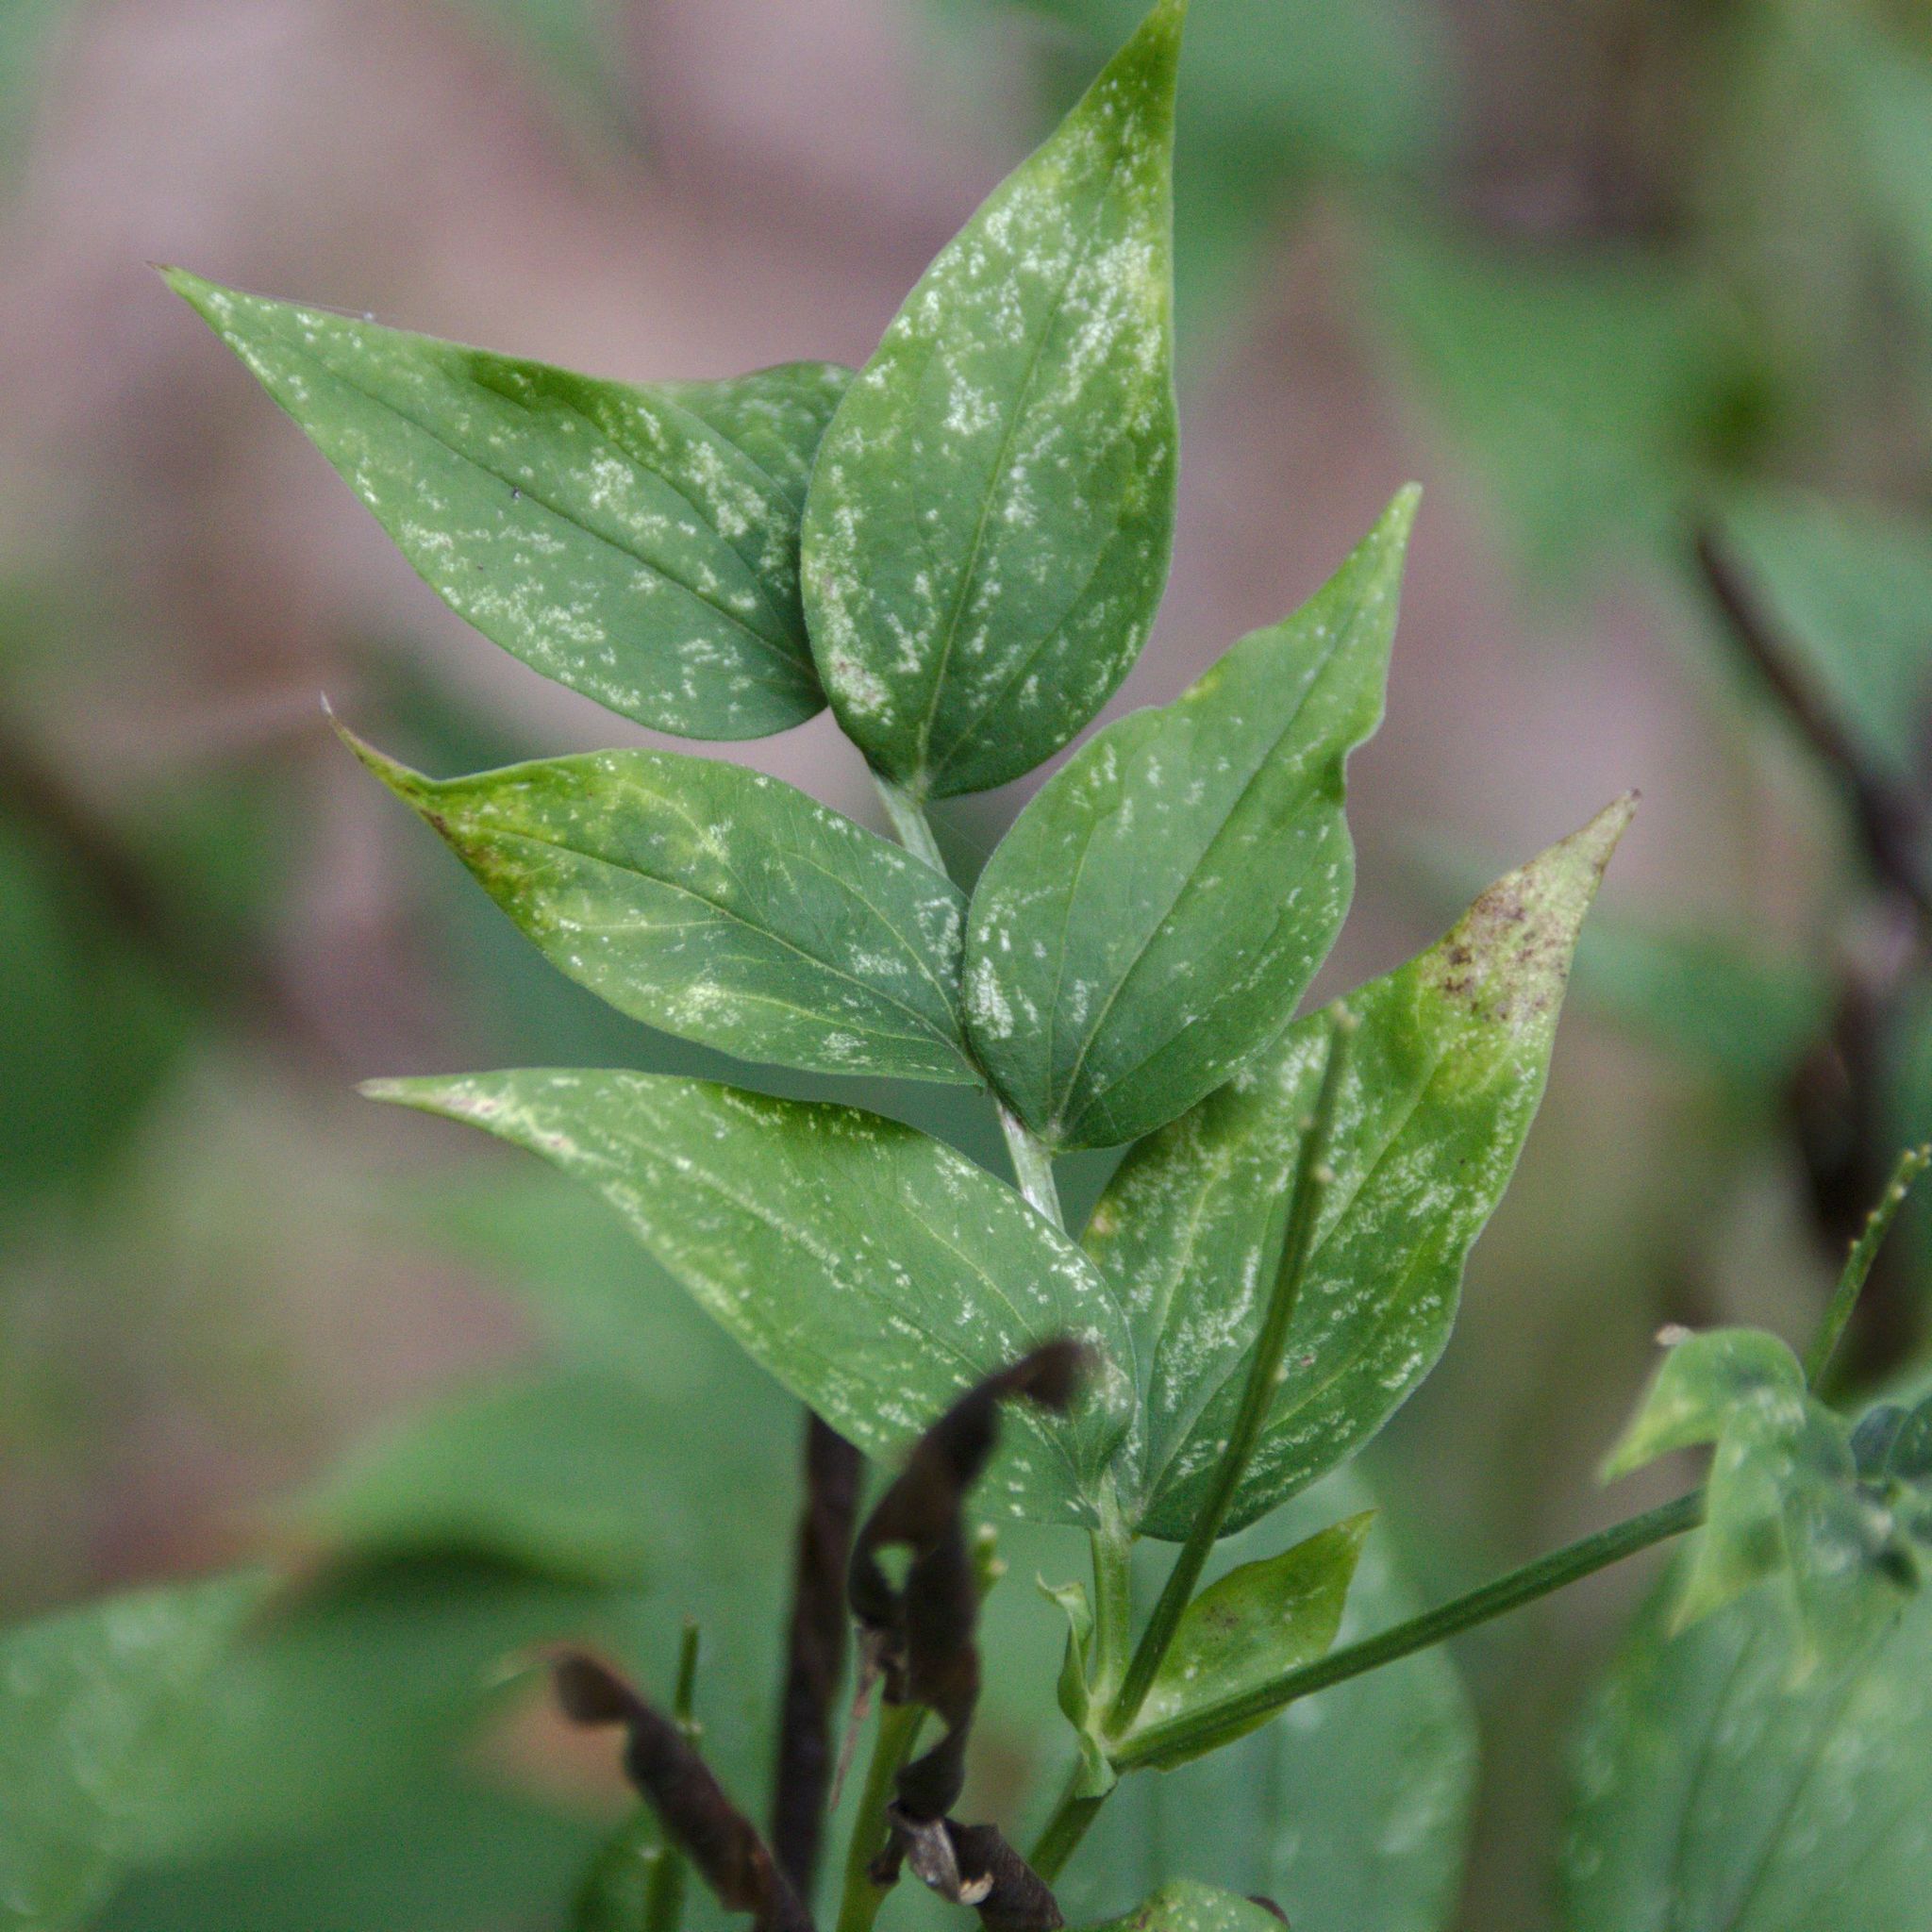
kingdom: Plantae
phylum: Tracheophyta
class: Magnoliopsida
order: Fabales
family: Fabaceae
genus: Lathyrus
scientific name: Lathyrus vernus
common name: Spring pea
